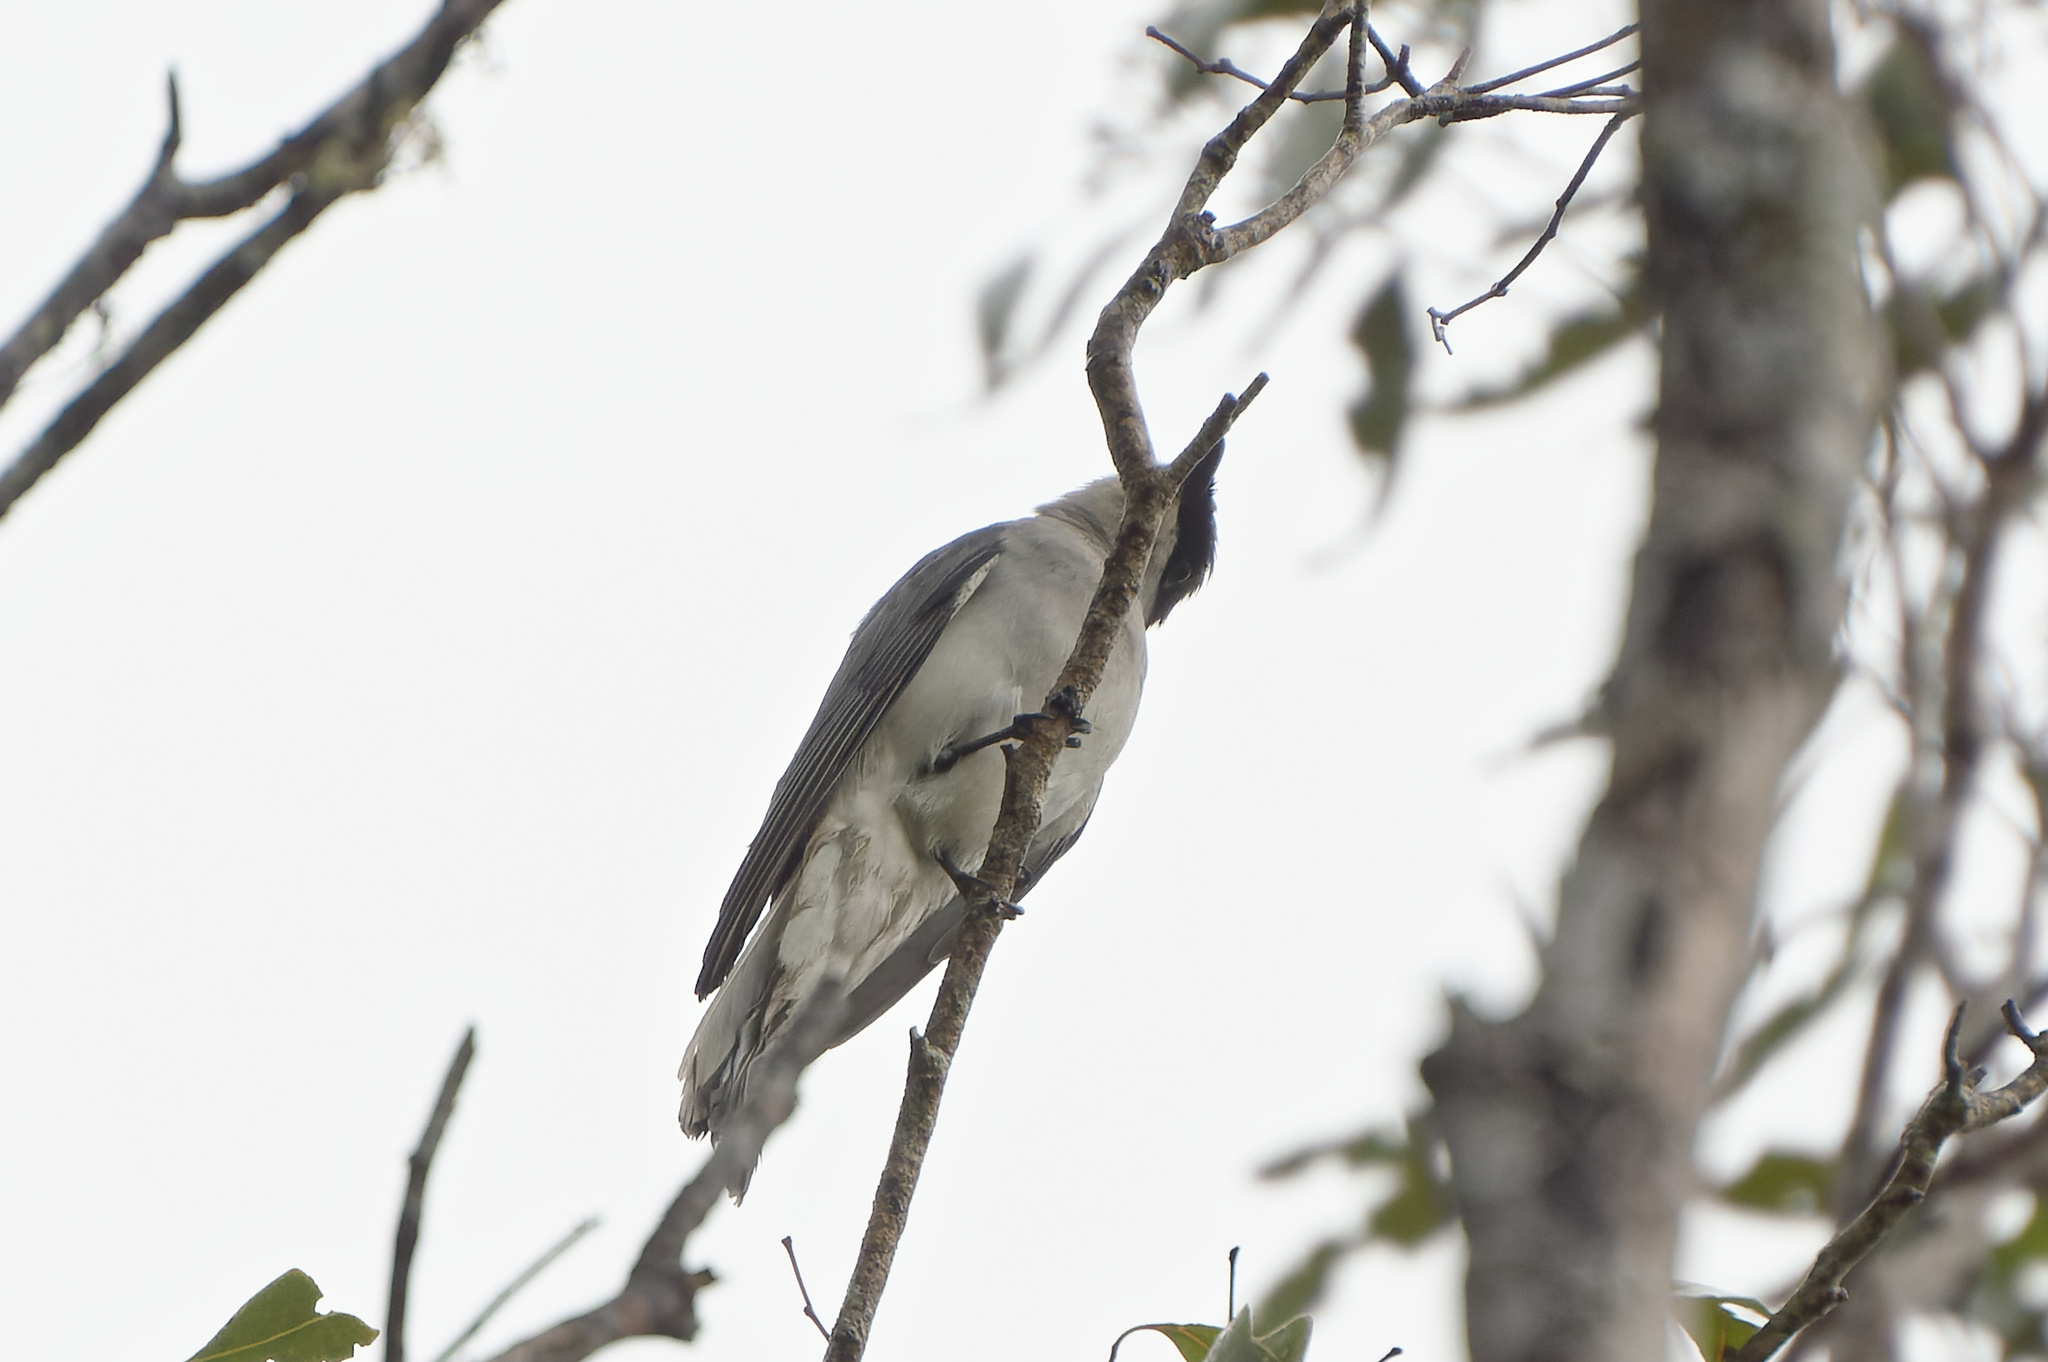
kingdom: Animalia
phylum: Chordata
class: Aves
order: Passeriformes
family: Campephagidae
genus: Coracina
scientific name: Coracina papuensis
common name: White-bellied cuckooshrike
